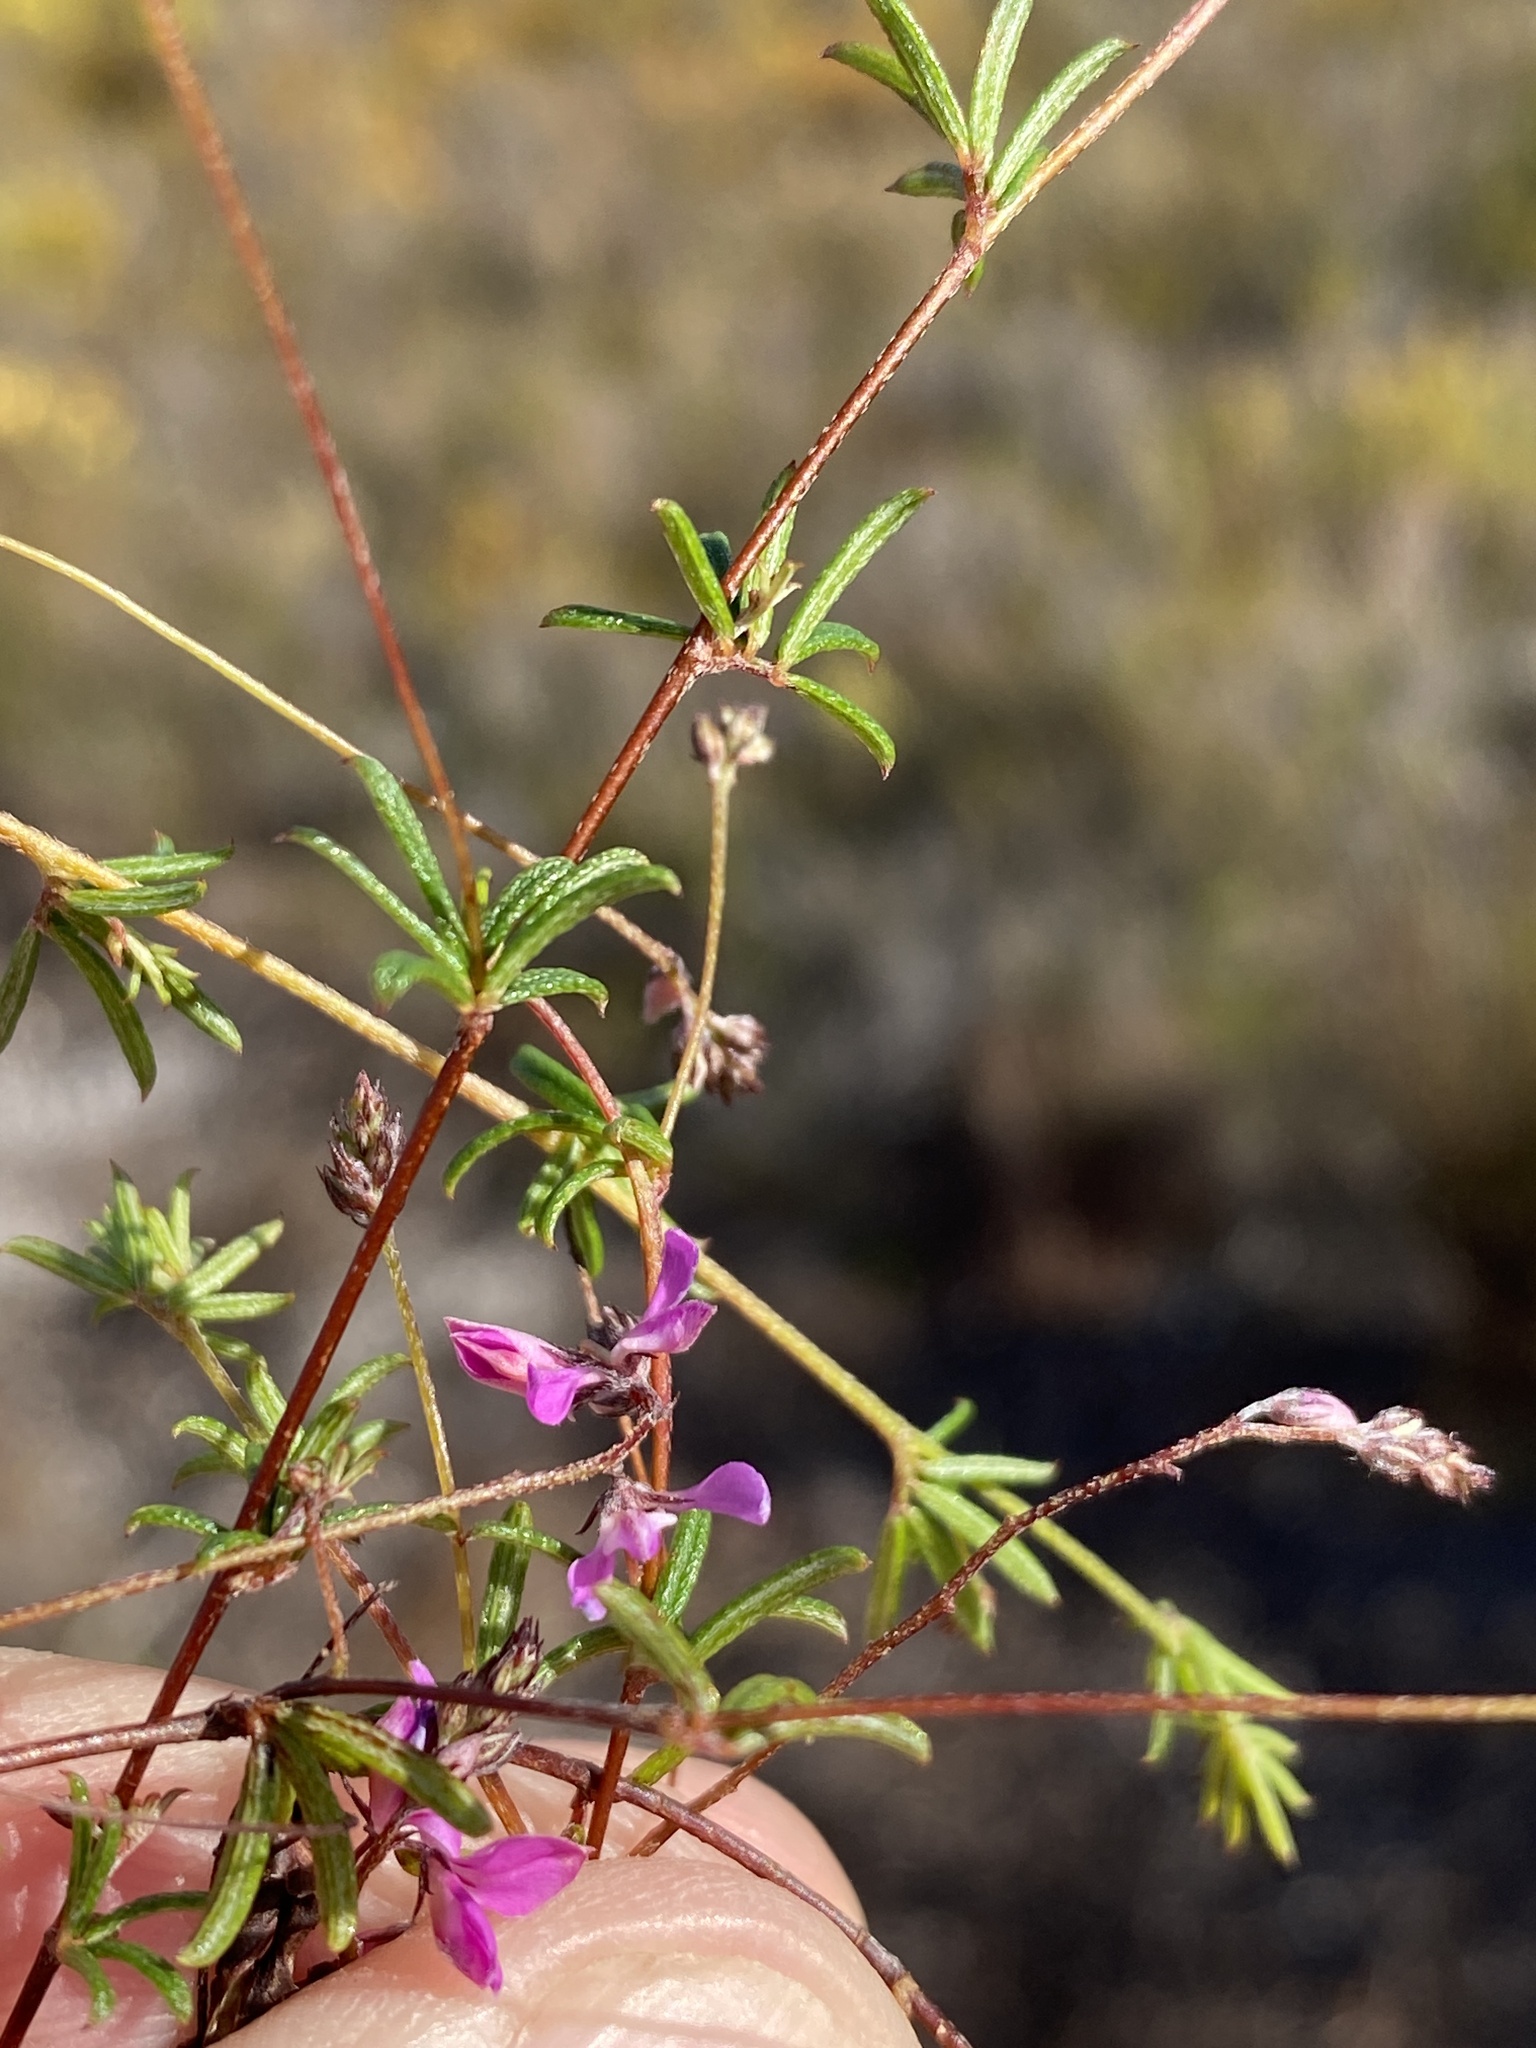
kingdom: Plantae
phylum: Tracheophyta
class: Magnoliopsida
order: Fabales
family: Fabaceae
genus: Indigofera
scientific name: Indigofera angustifolia
